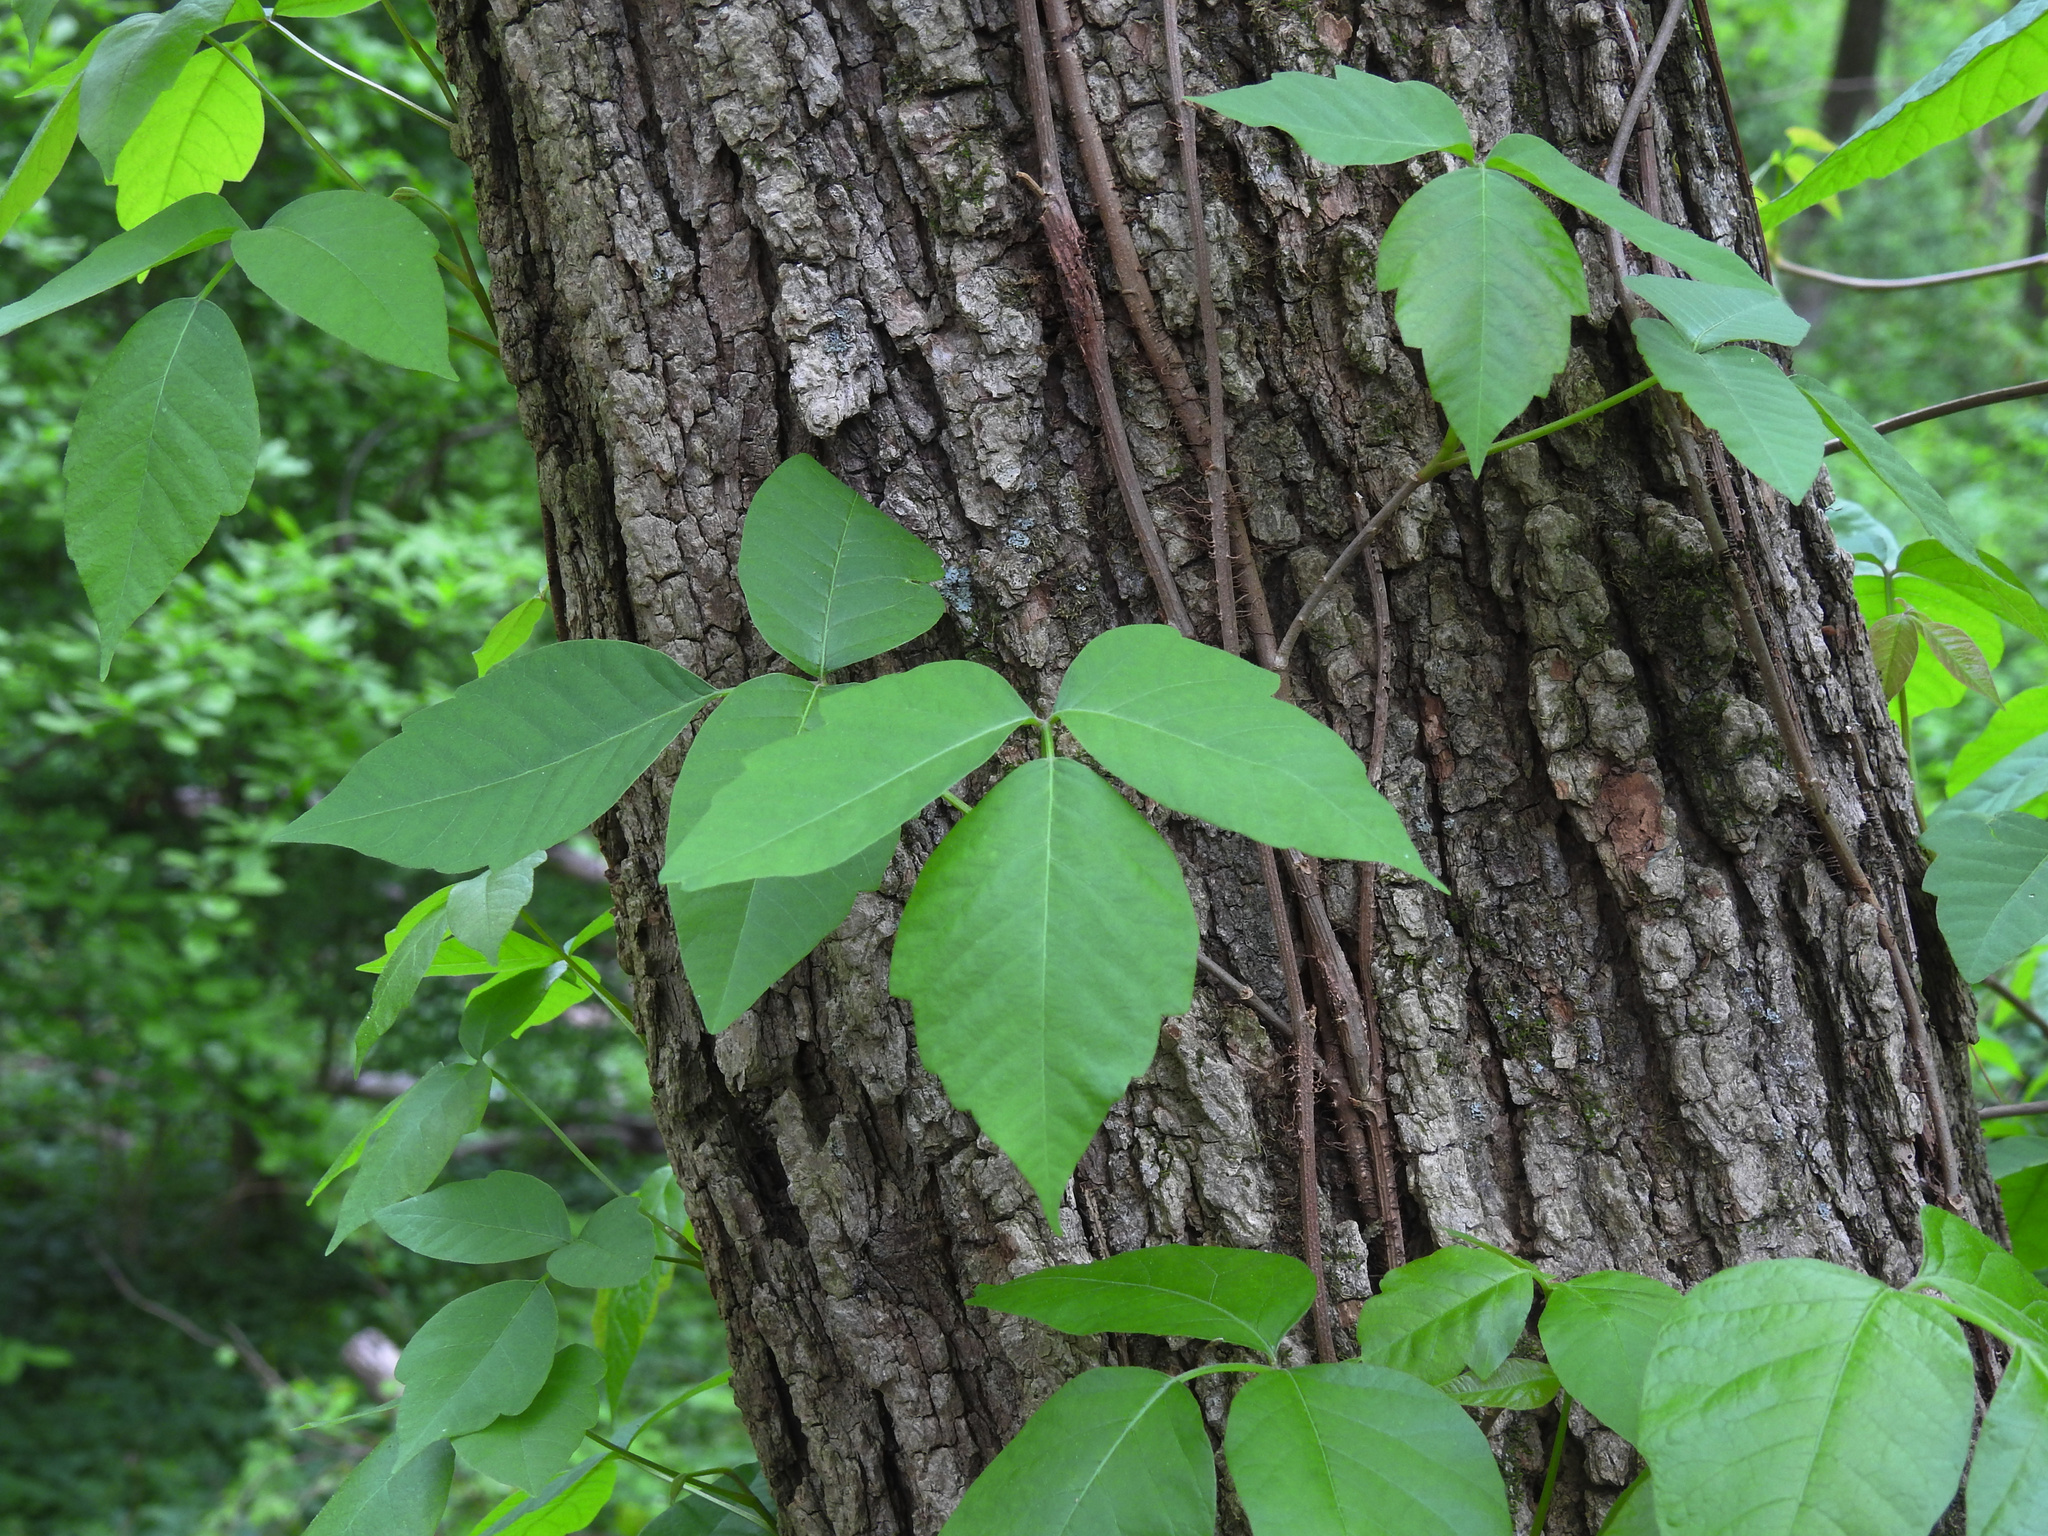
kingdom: Plantae
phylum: Tracheophyta
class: Magnoliopsida
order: Sapindales
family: Anacardiaceae
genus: Toxicodendron
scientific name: Toxicodendron radicans
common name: Poison ivy
